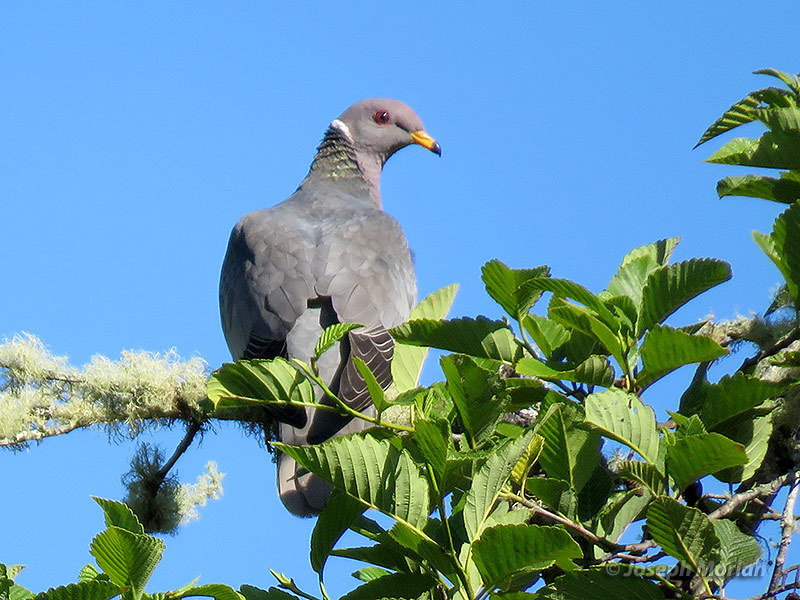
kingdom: Animalia
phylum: Chordata
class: Aves
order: Columbiformes
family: Columbidae
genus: Patagioenas
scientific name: Patagioenas fasciata
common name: Band-tailed pigeon
